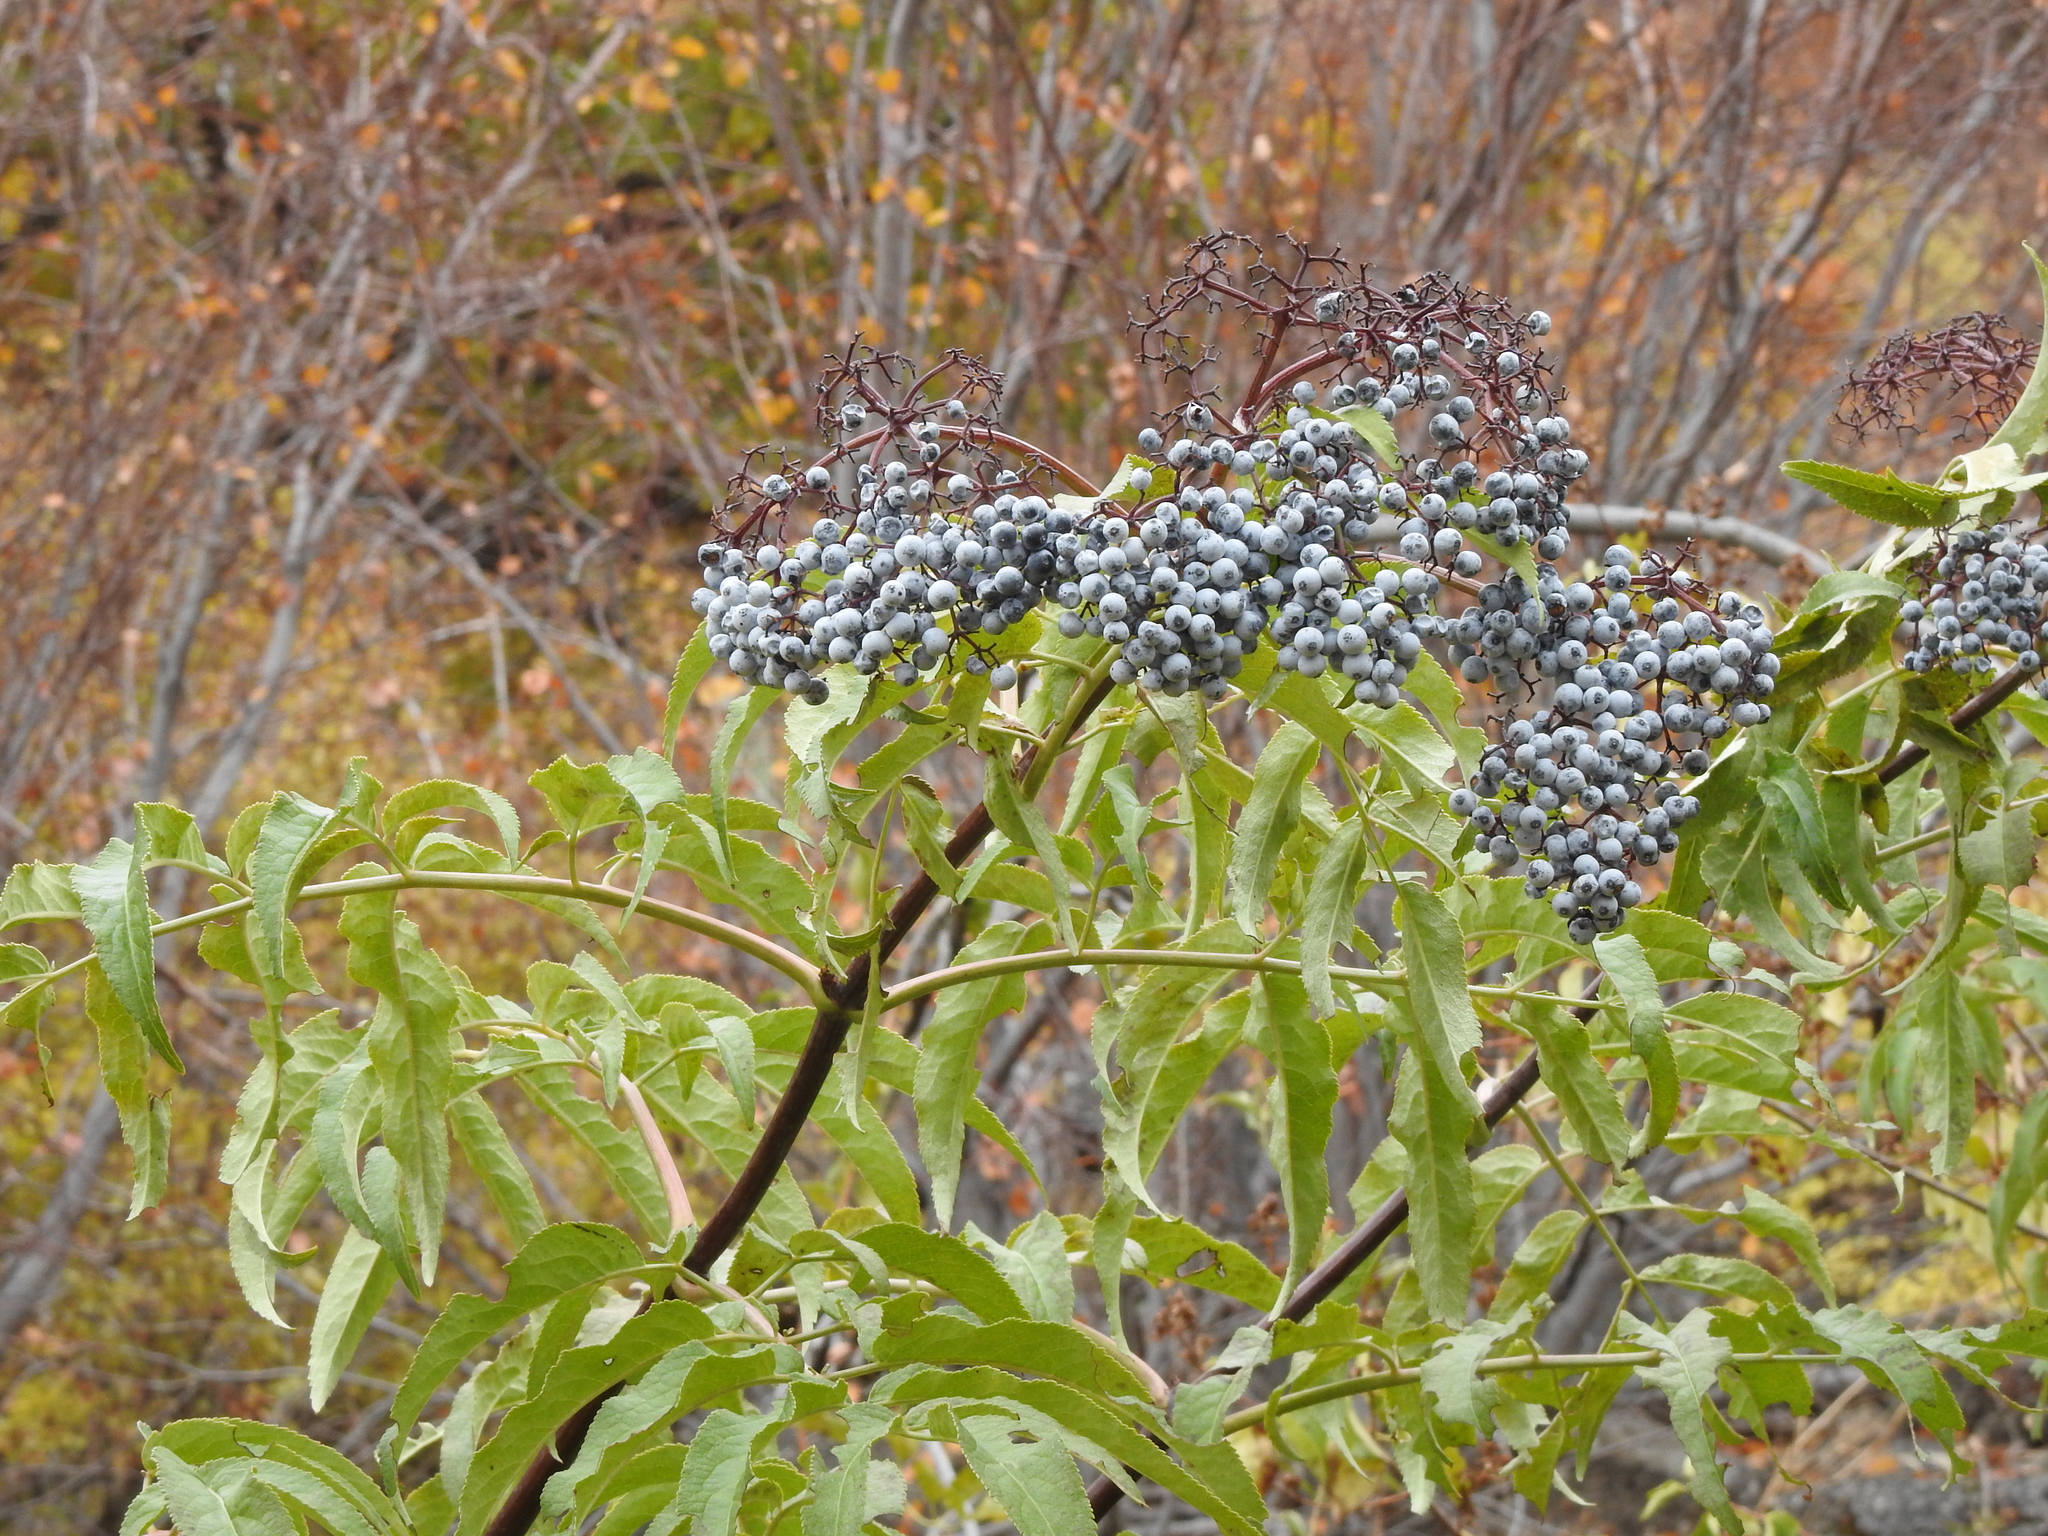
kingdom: Plantae
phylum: Tracheophyta
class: Magnoliopsida
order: Dipsacales
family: Viburnaceae
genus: Sambucus
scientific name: Sambucus cerulea
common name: Blue elder
